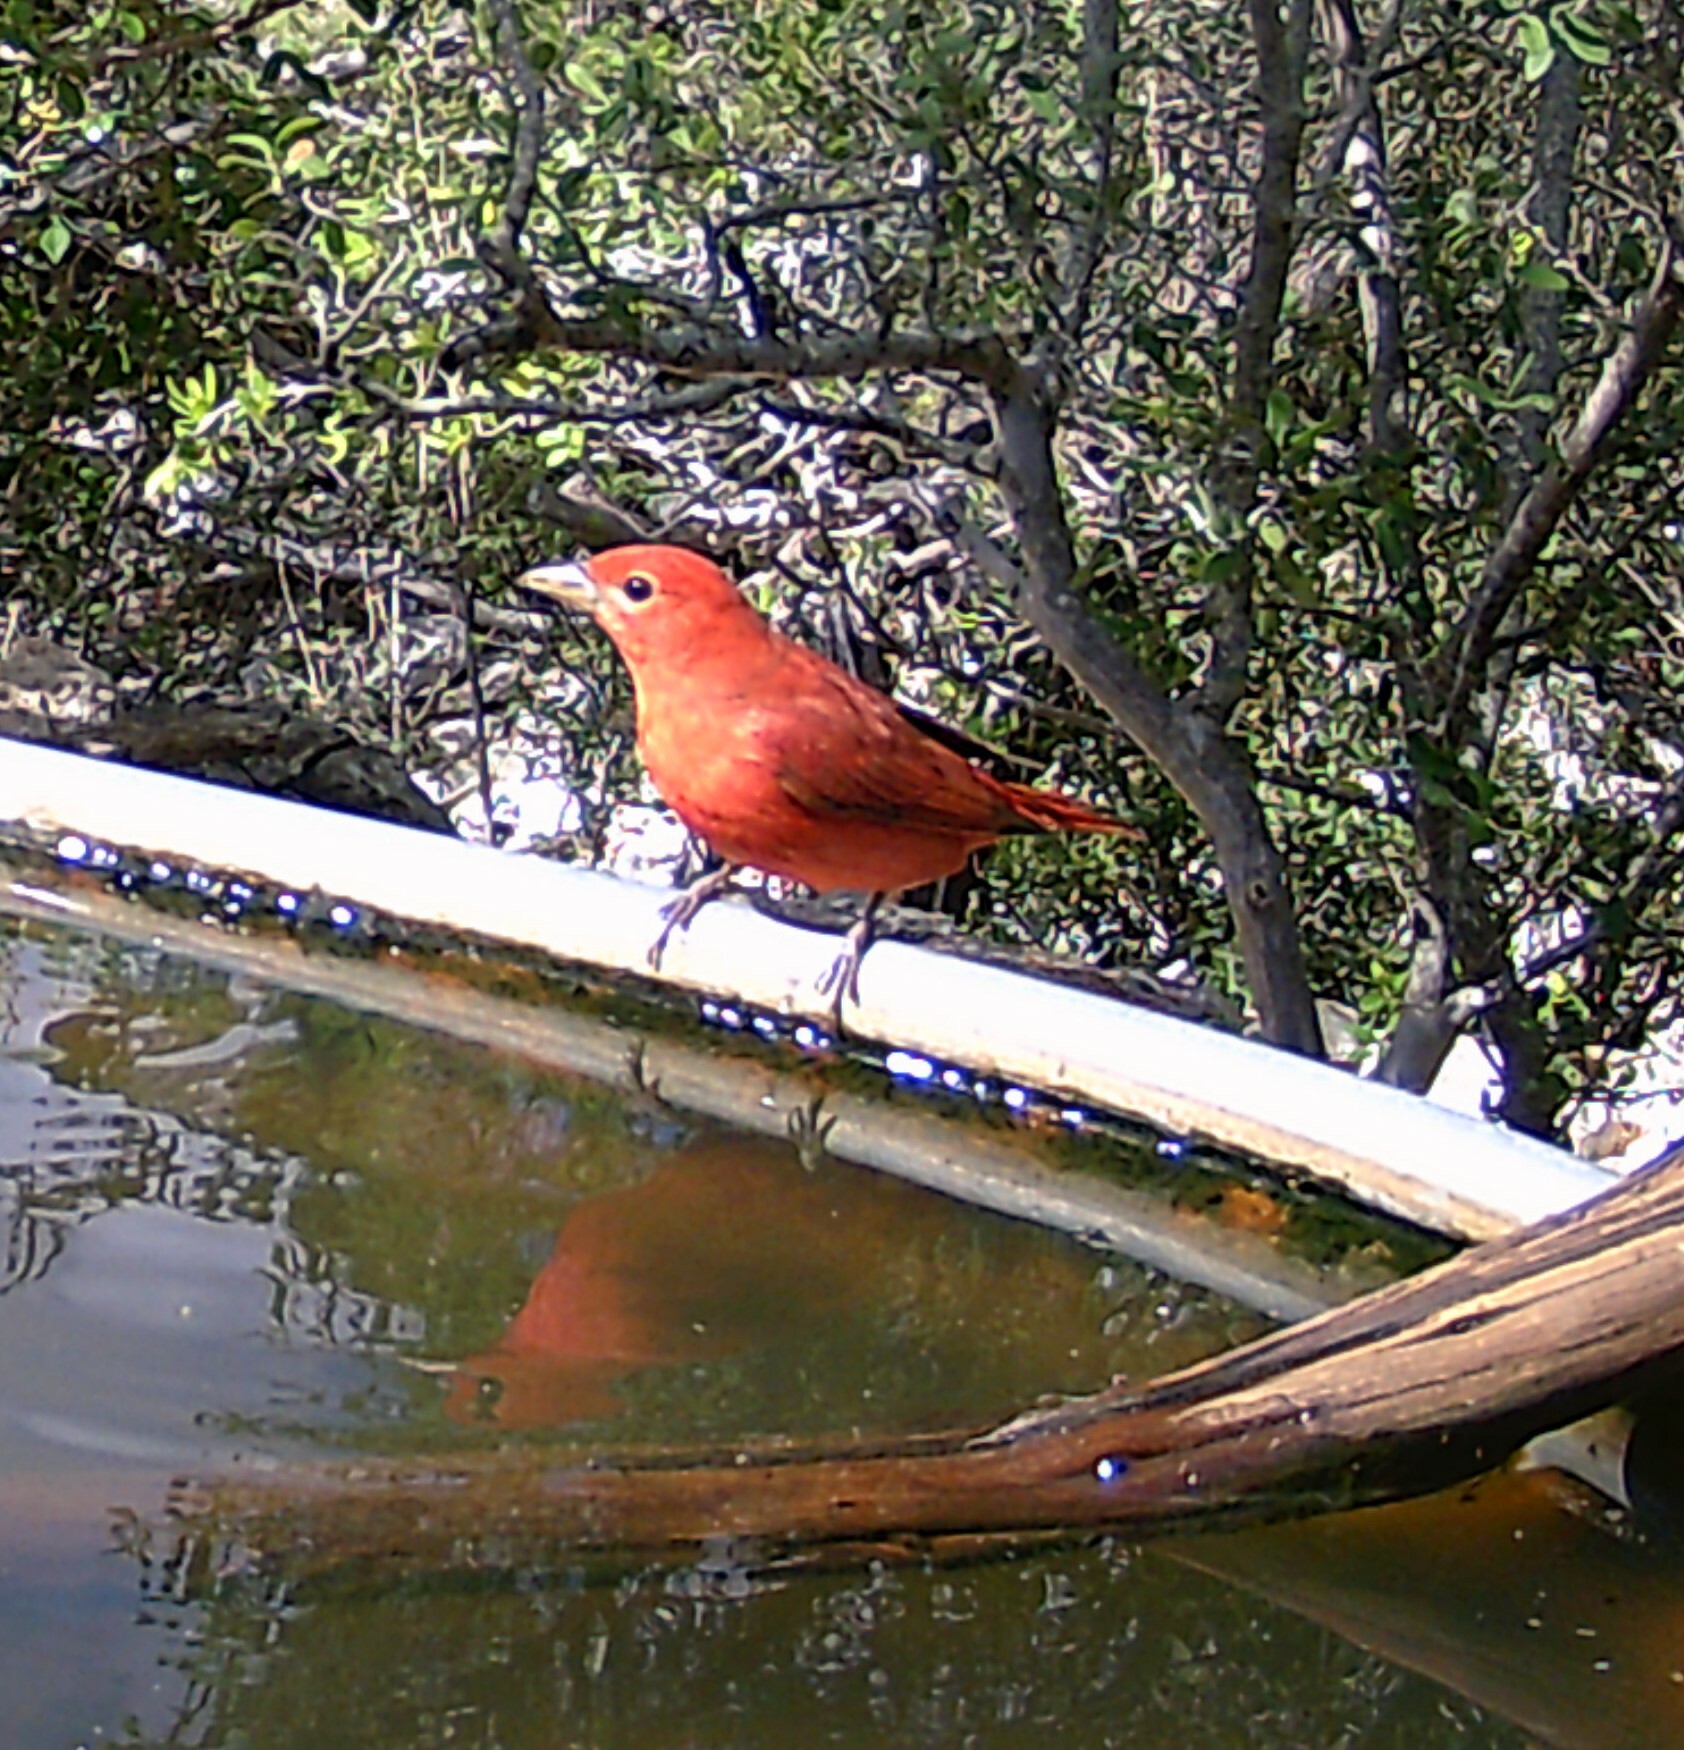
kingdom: Animalia
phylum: Chordata
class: Aves
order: Passeriformes
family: Cardinalidae
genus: Piranga
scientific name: Piranga rubra
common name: Summer tanager
